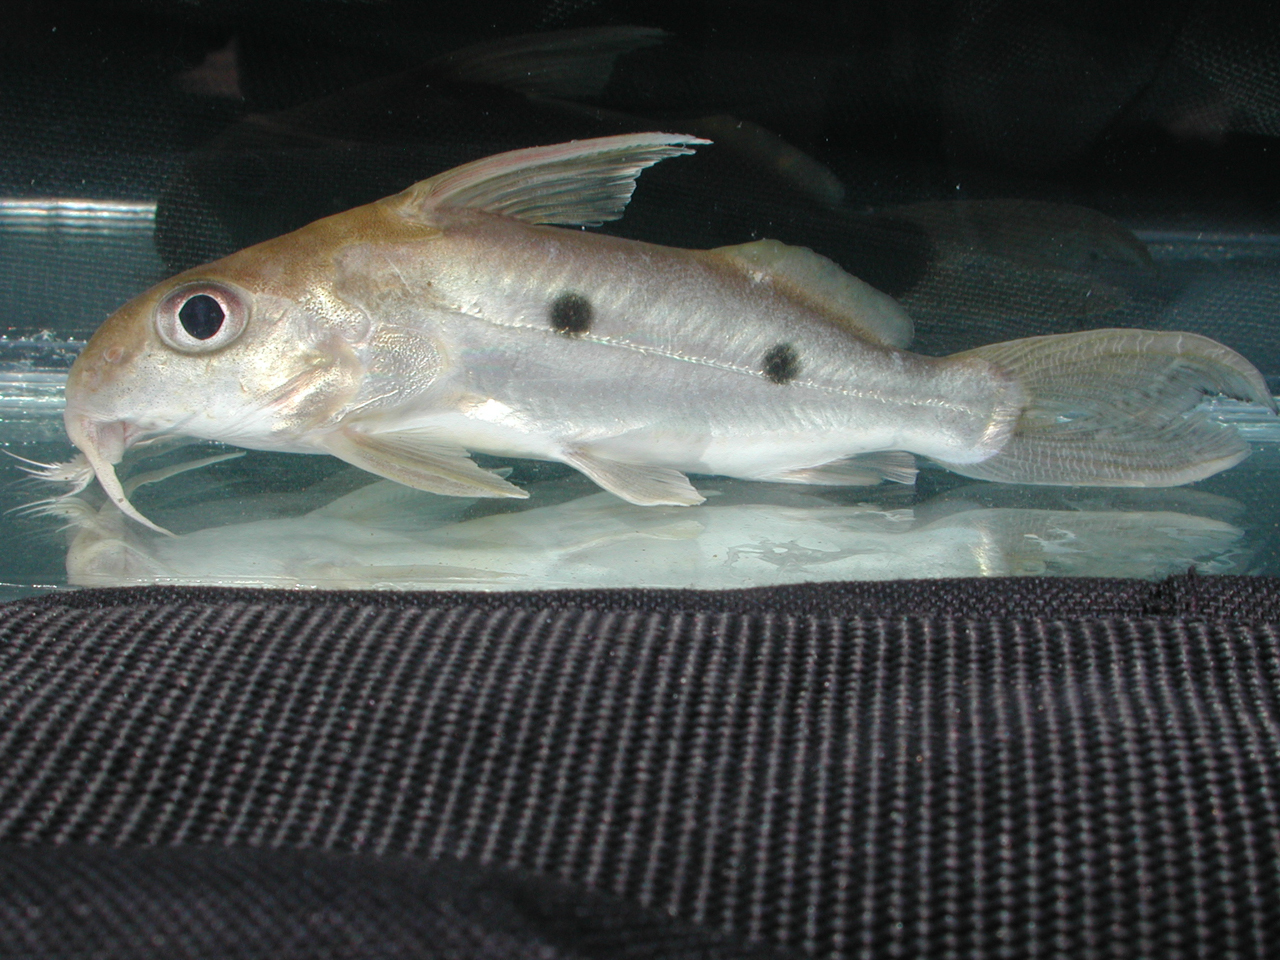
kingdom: Animalia
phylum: Chordata
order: Siluriformes
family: Mochokidae
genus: Synodontis
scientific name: Synodontis congicus
